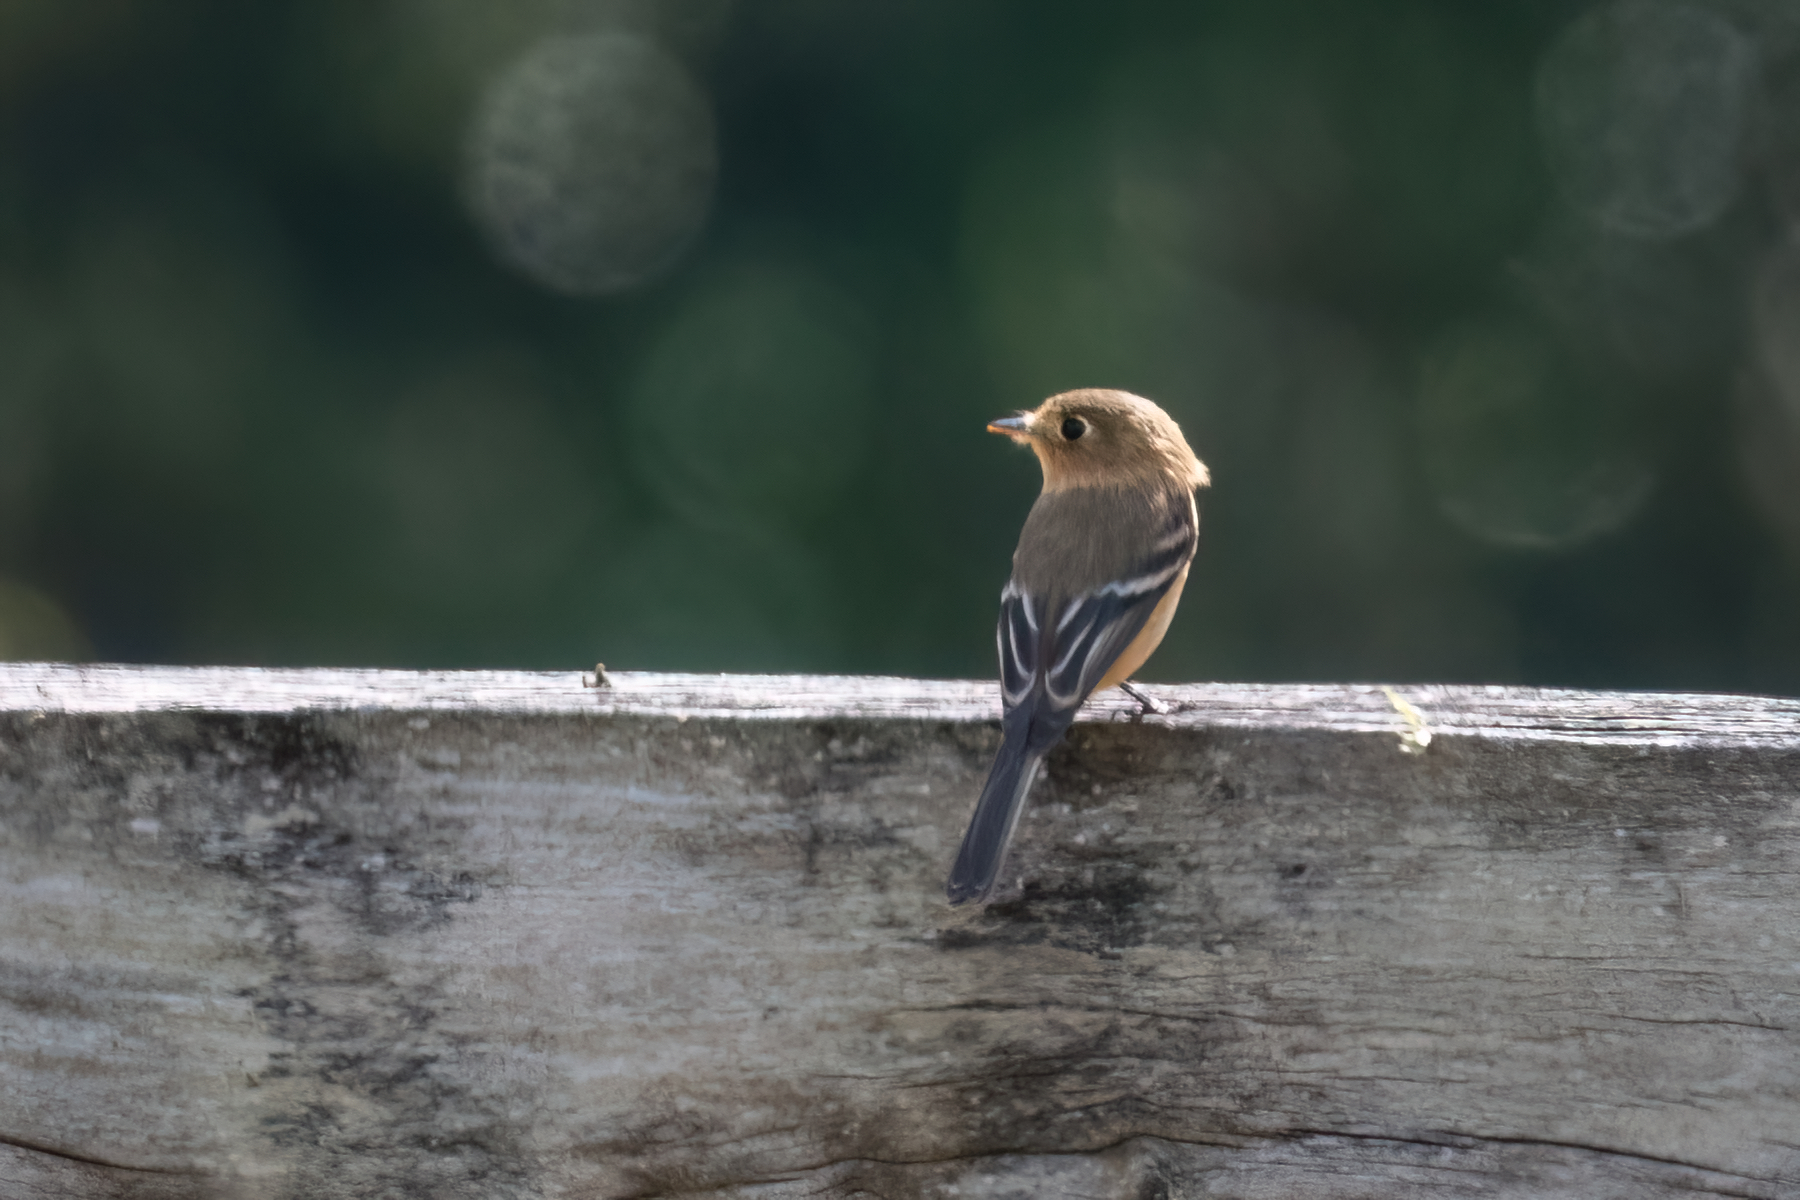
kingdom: Animalia
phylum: Chordata
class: Aves
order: Passeriformes
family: Tyrannidae
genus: Empidonax
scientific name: Empidonax fulvifrons
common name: Buff-breasted flycatcher
